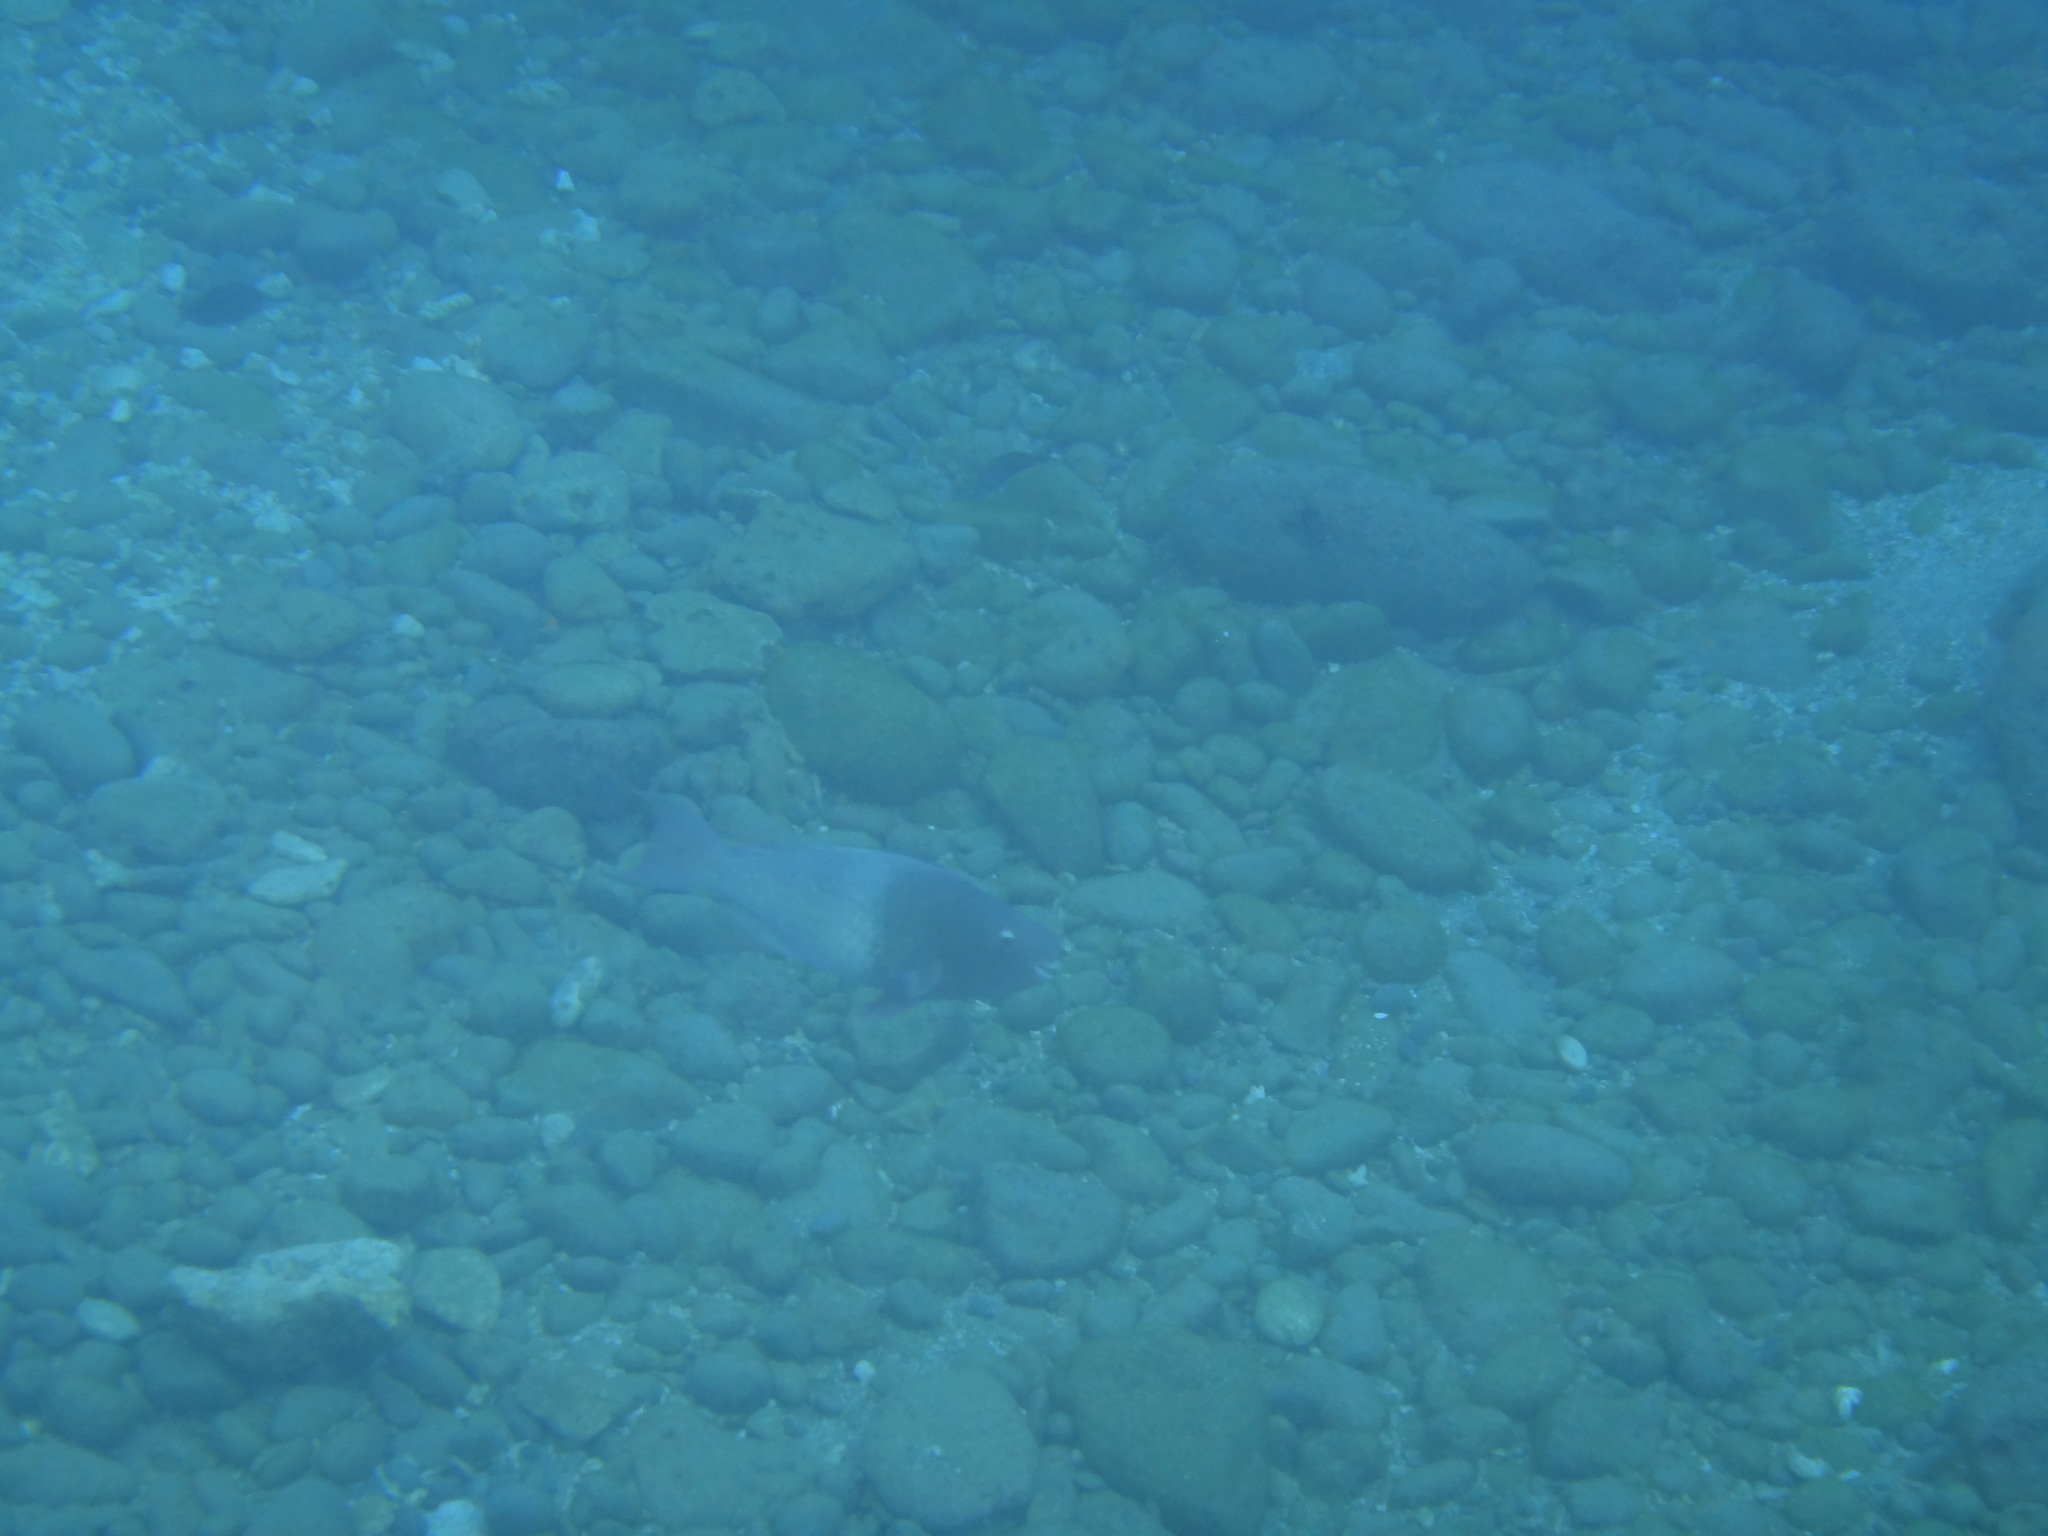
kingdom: Animalia
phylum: Chordata
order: Perciformes
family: Scaridae
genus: Scarus
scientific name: Scarus rubroviolaceus
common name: Ember parrotfish
